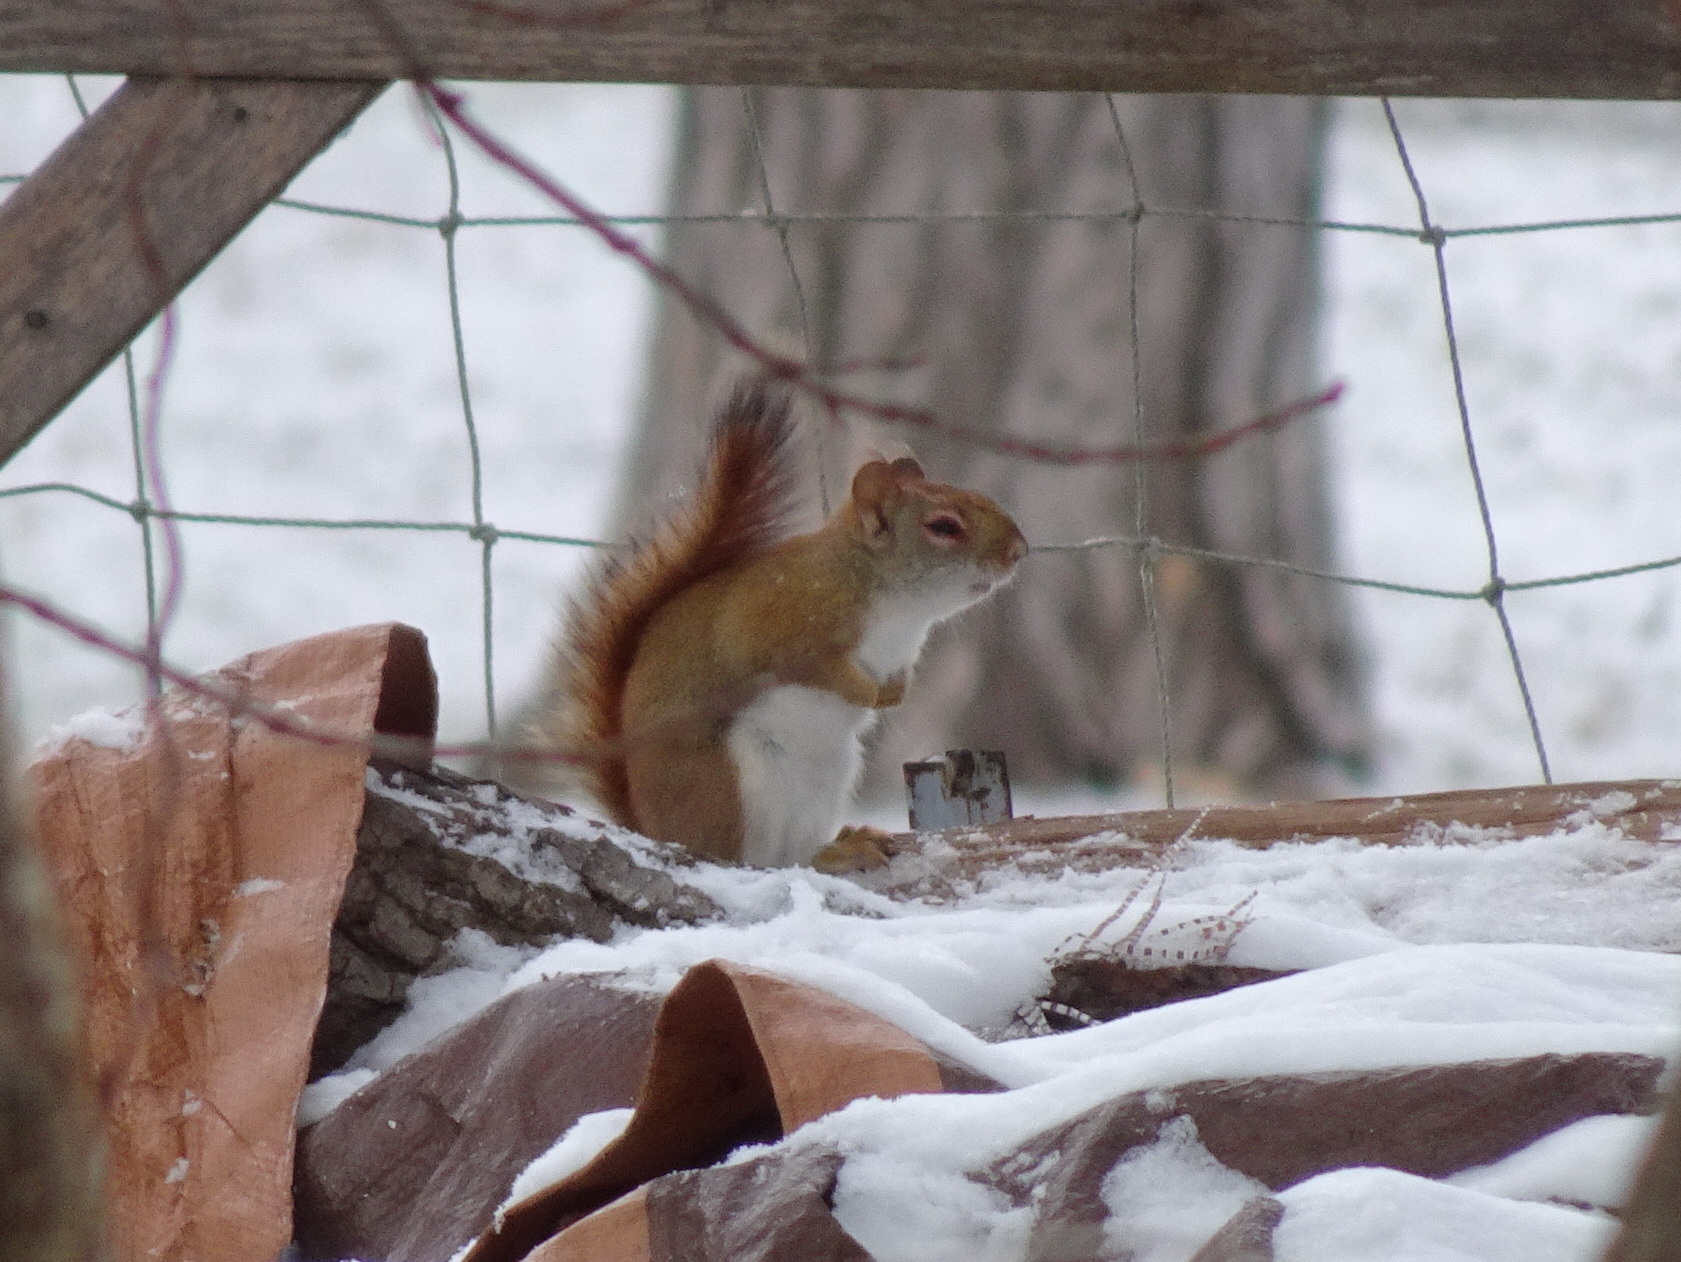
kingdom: Animalia
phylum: Chordata
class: Mammalia
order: Rodentia
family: Sciuridae
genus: Tamiasciurus
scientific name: Tamiasciurus hudsonicus
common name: Red squirrel
